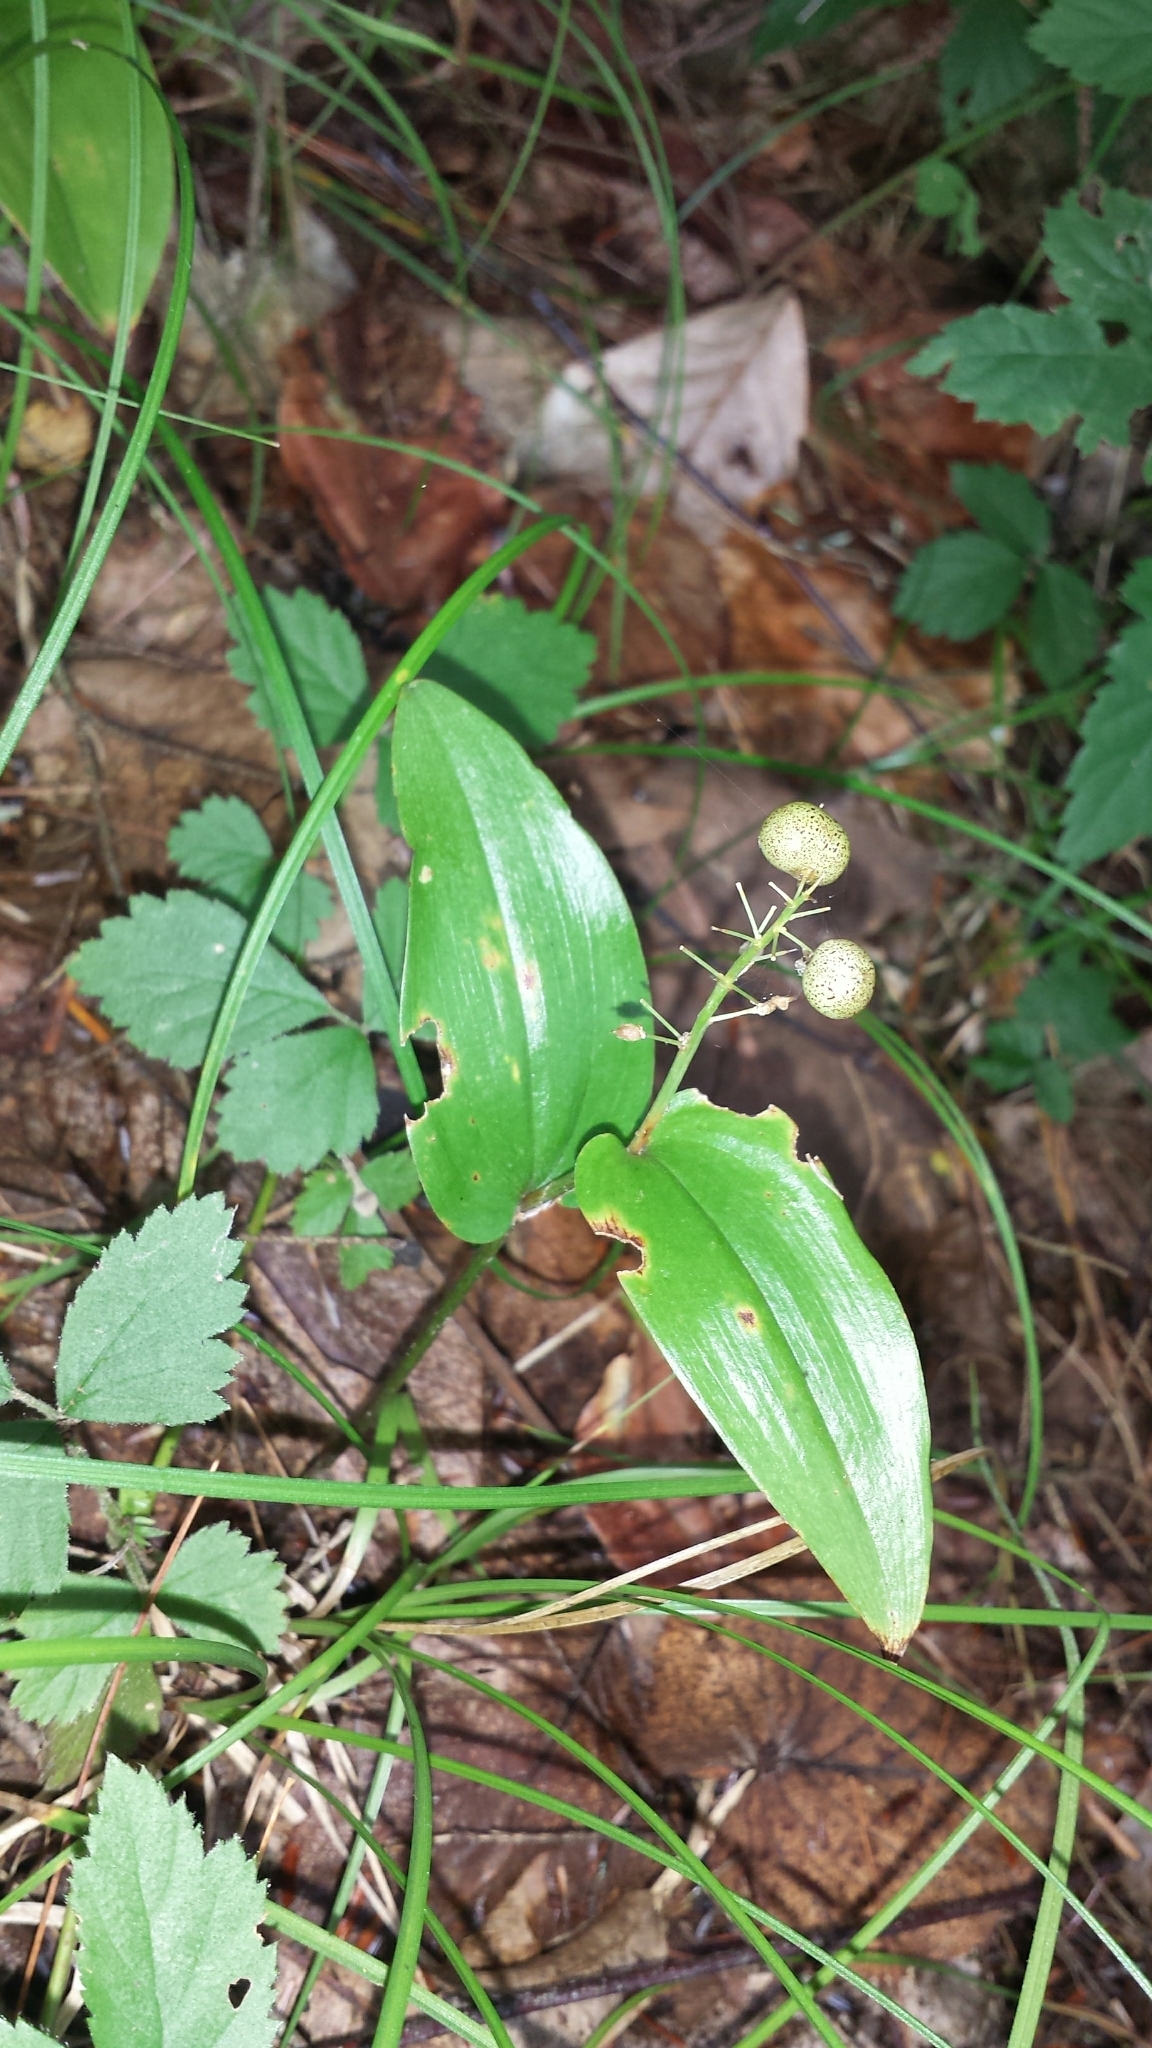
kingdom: Plantae
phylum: Tracheophyta
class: Liliopsida
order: Asparagales
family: Asparagaceae
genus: Maianthemum
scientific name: Maianthemum canadense
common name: False lily-of-the-valley
